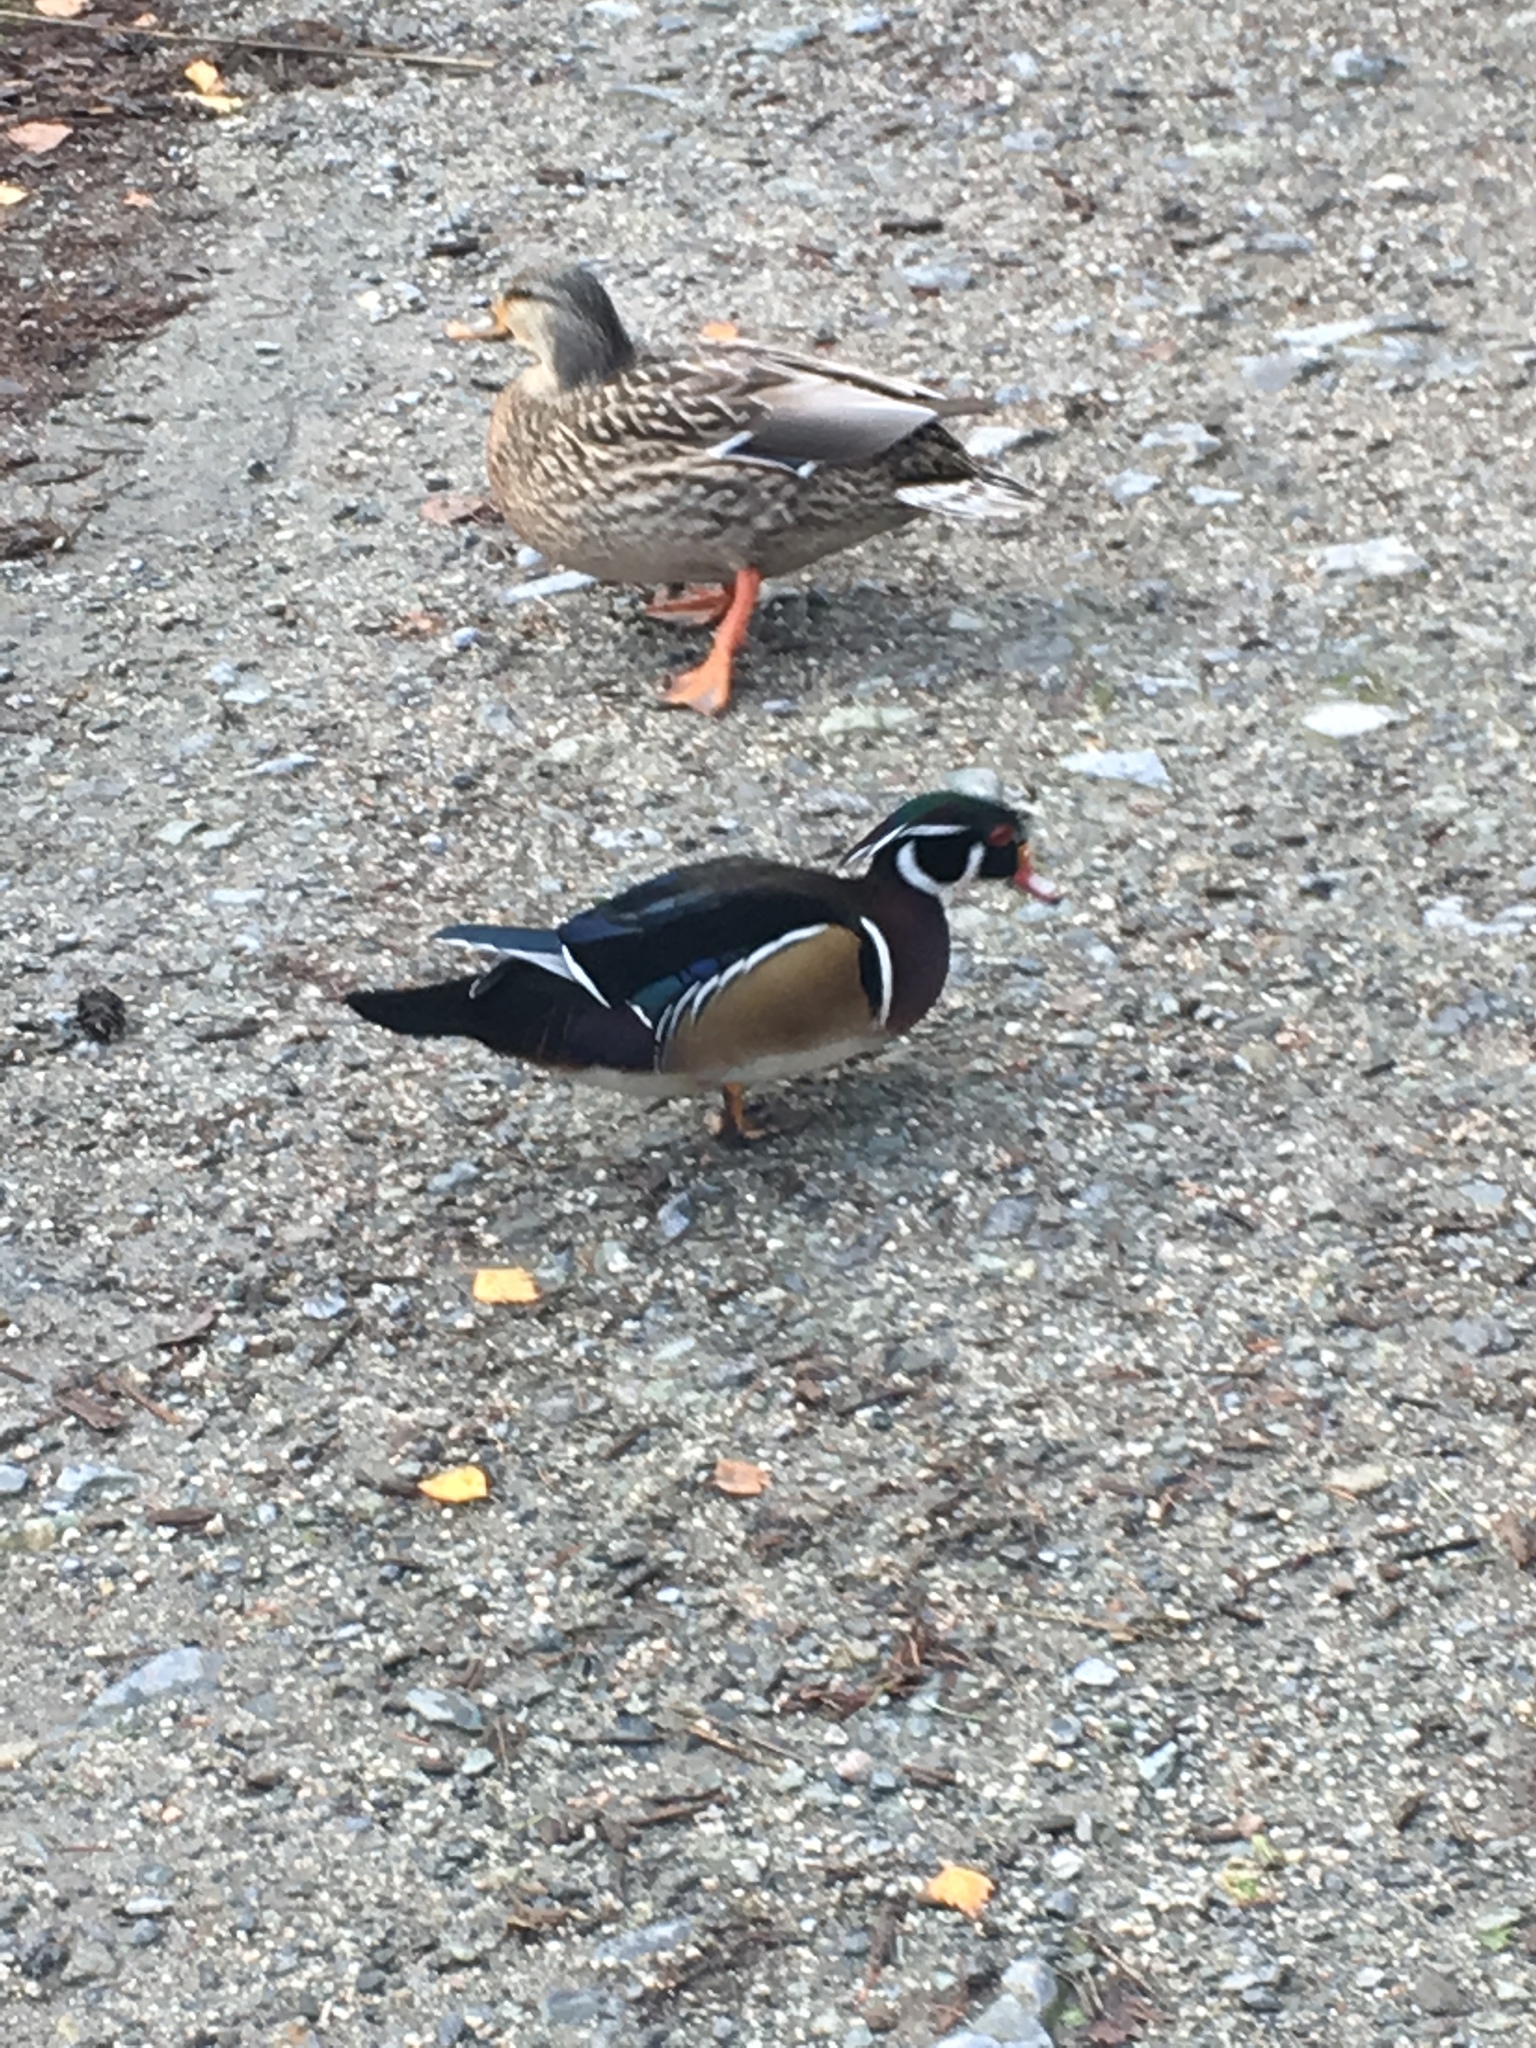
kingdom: Animalia
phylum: Chordata
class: Aves
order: Anseriformes
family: Anatidae
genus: Aix
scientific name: Aix sponsa
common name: Wood duck
